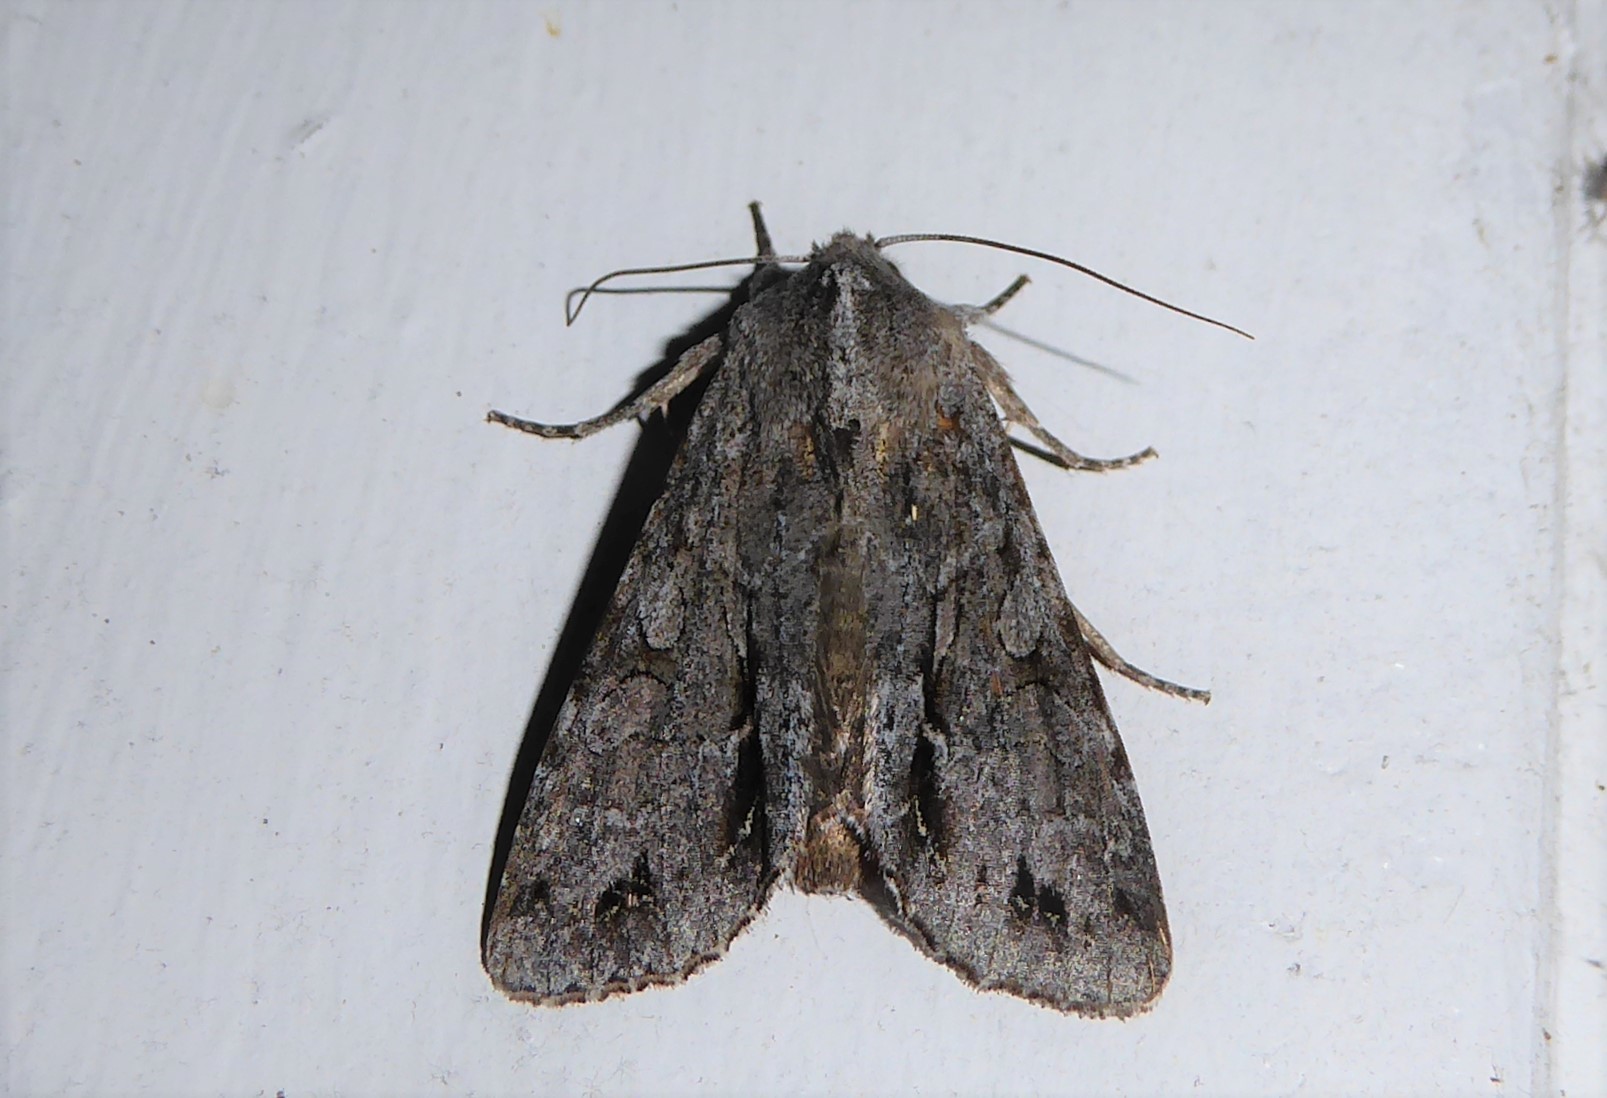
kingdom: Animalia
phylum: Arthropoda
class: Insecta
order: Lepidoptera
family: Noctuidae
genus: Ichneutica
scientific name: Ichneutica
